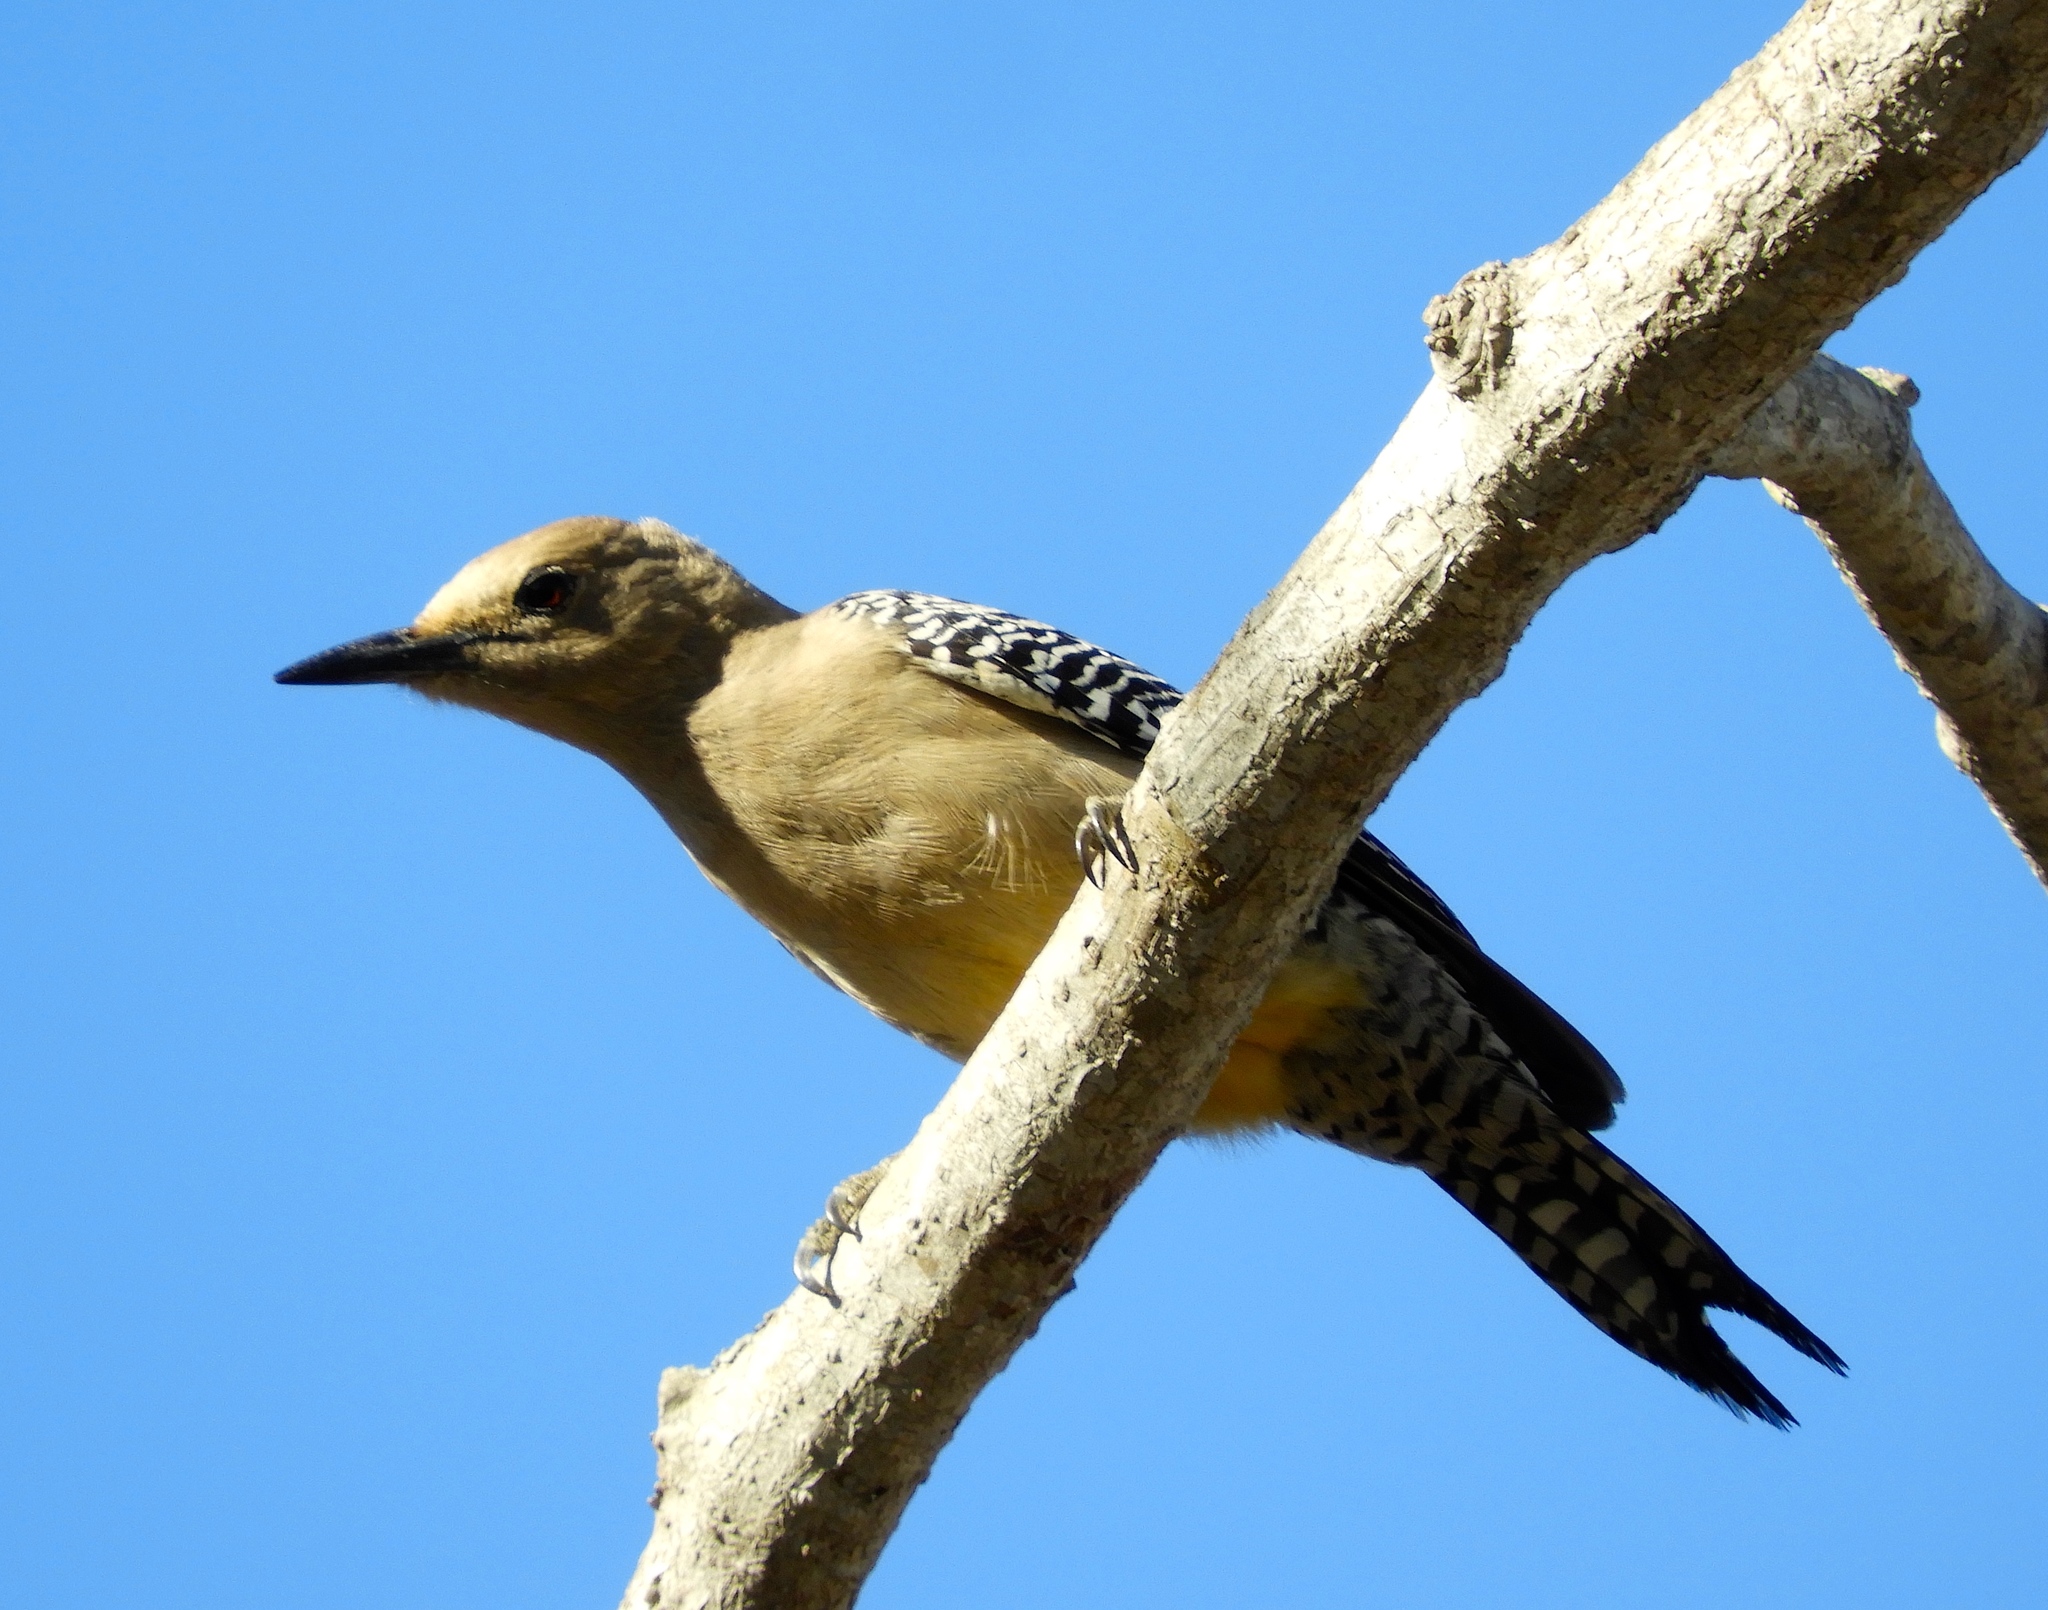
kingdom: Animalia
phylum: Chordata
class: Aves
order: Piciformes
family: Picidae
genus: Melanerpes
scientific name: Melanerpes uropygialis
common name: Gila woodpecker
